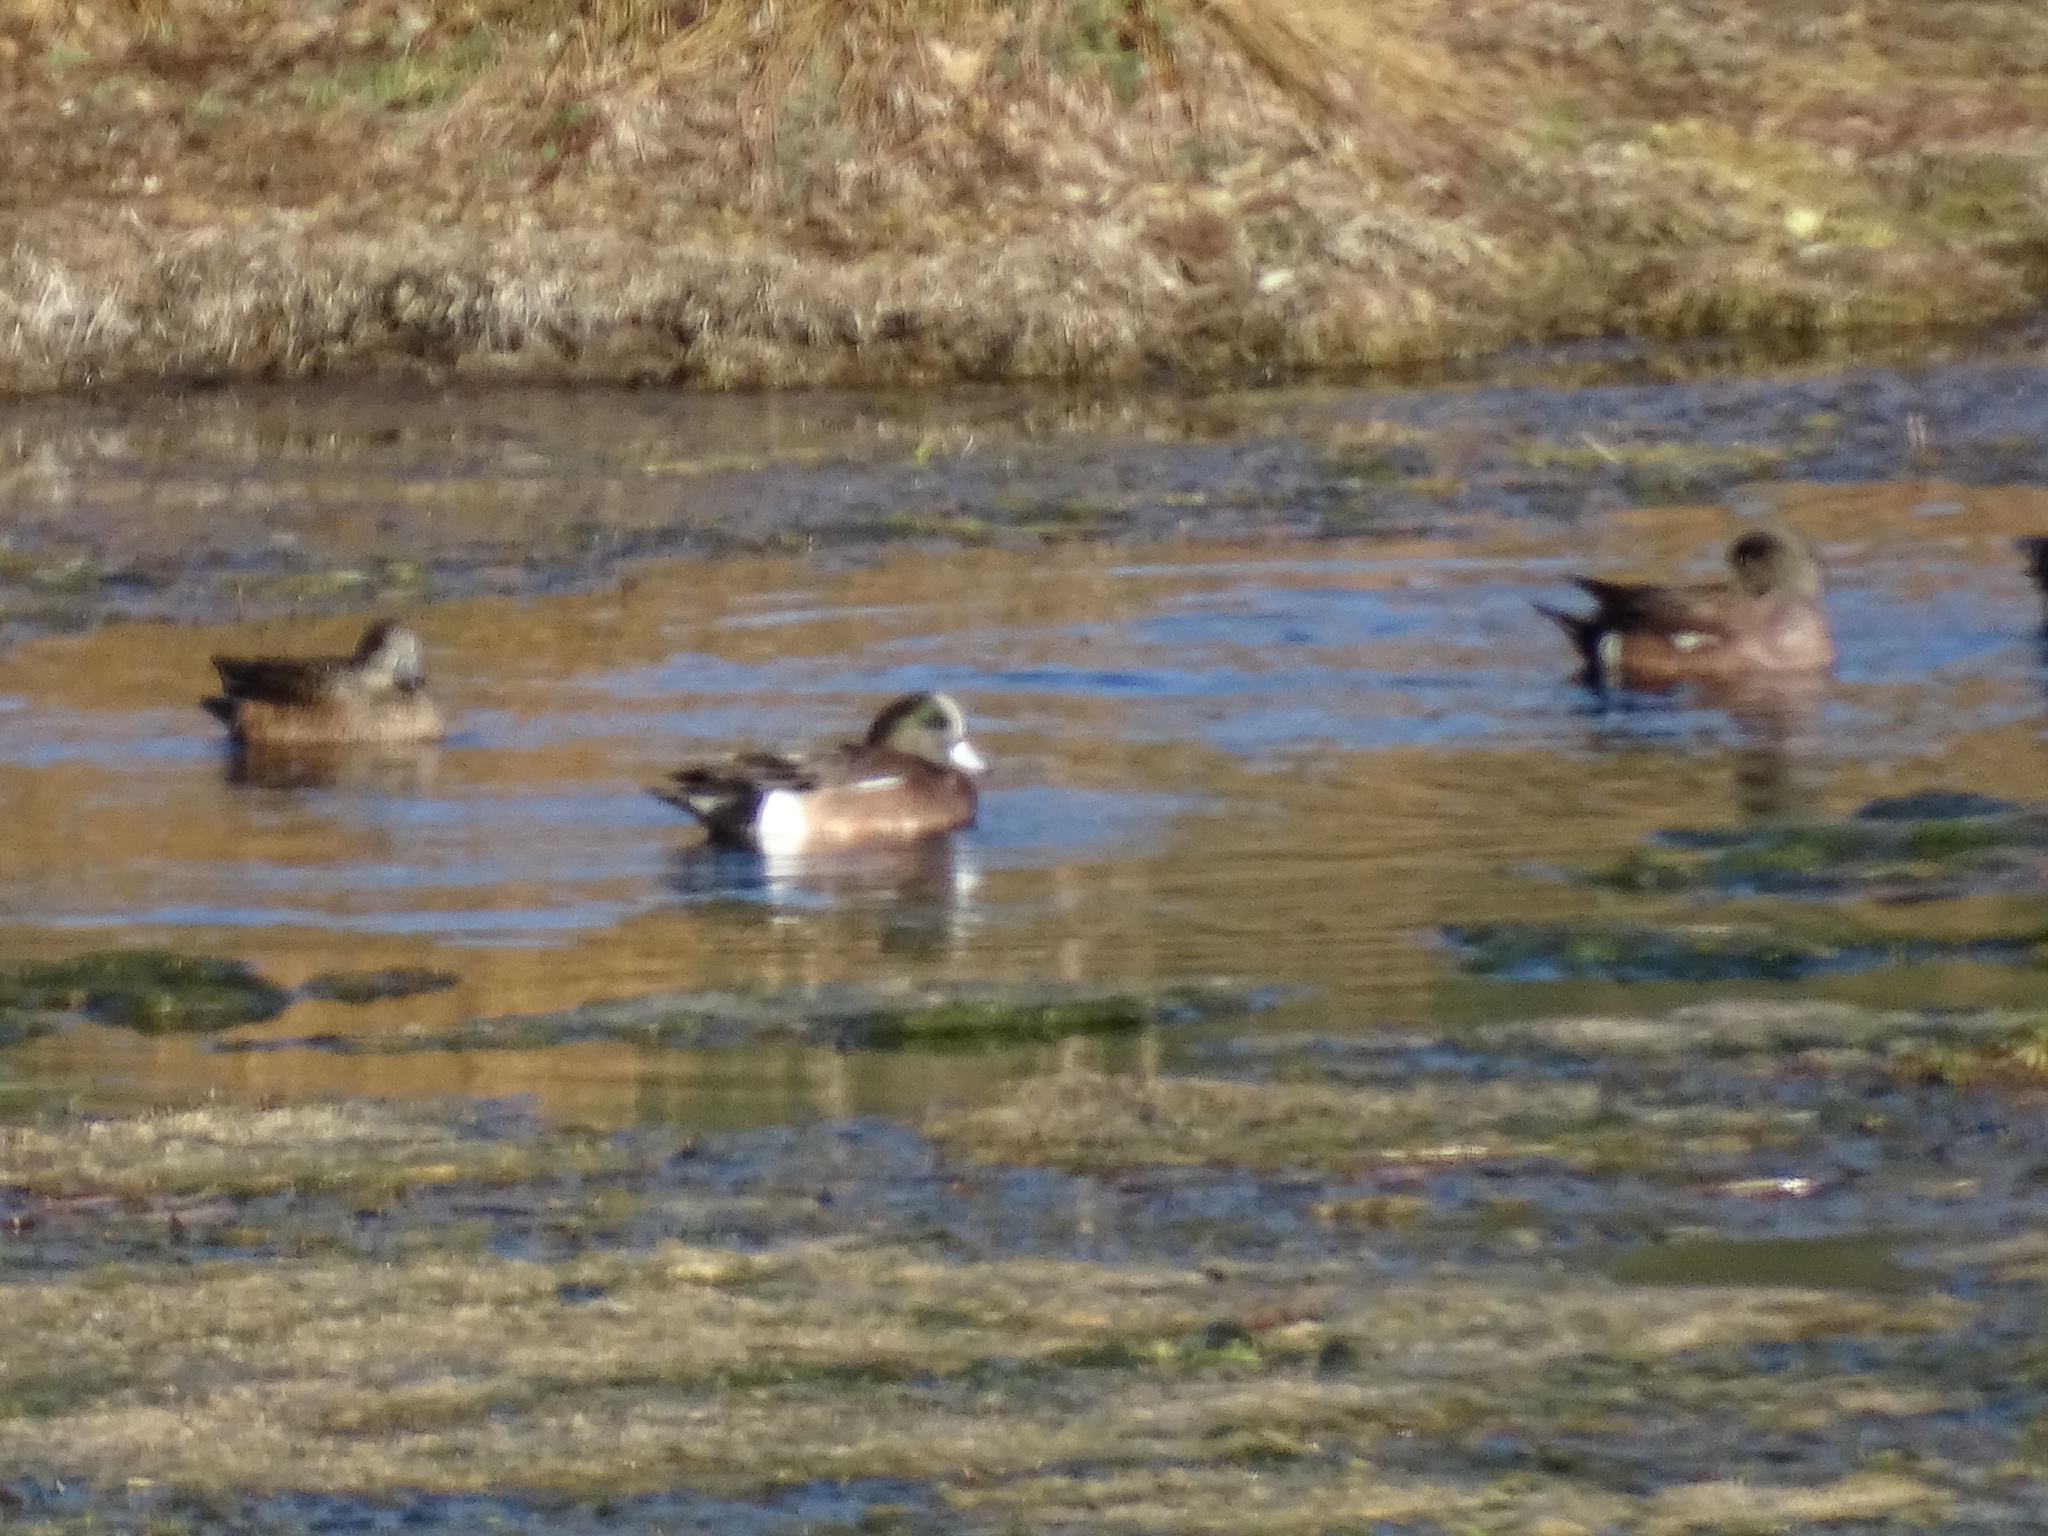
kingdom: Animalia
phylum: Chordata
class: Aves
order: Anseriformes
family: Anatidae
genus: Mareca
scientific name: Mareca americana
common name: American wigeon
